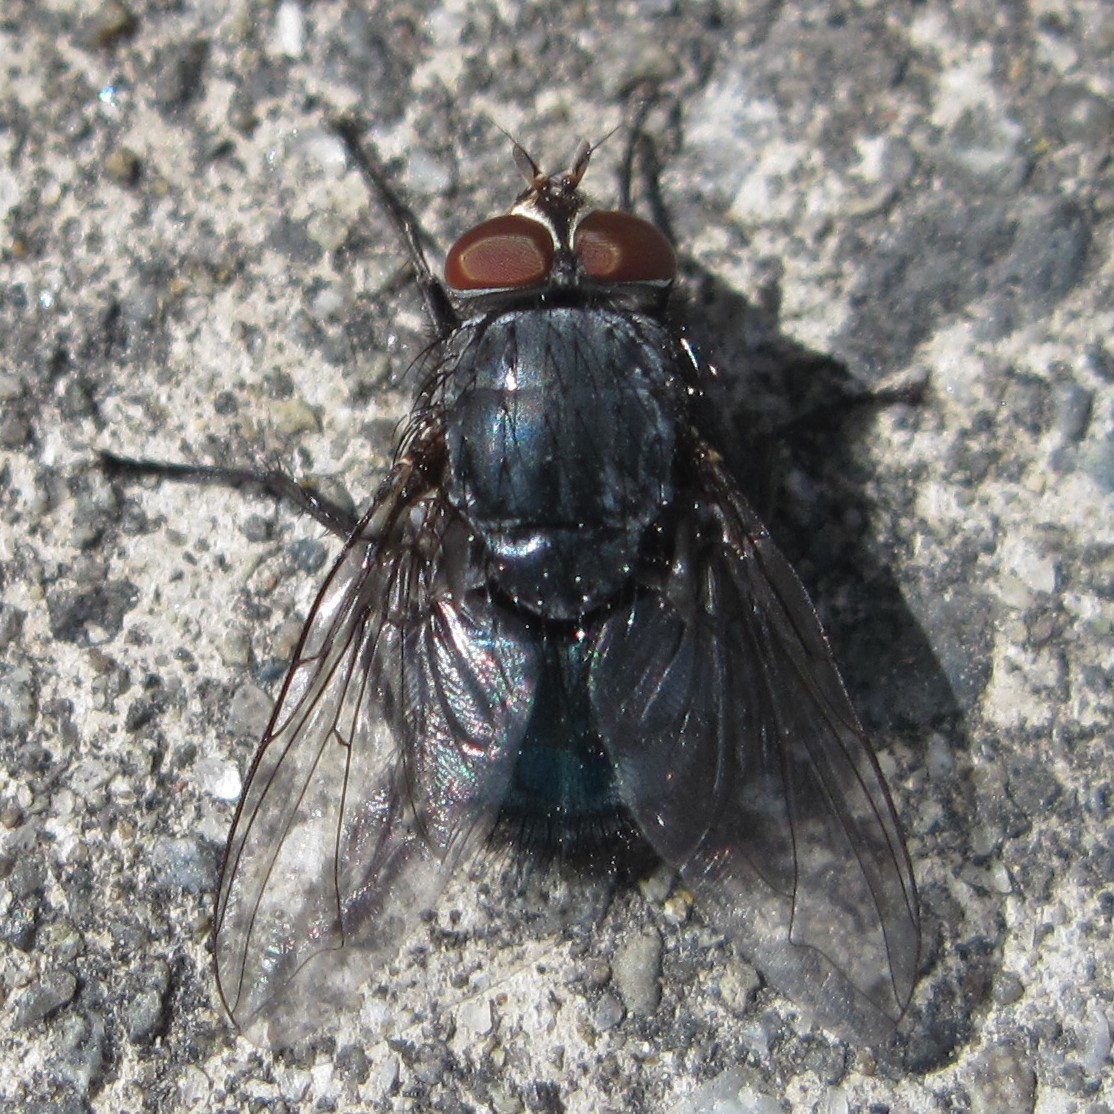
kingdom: Animalia
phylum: Arthropoda
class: Insecta
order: Diptera
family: Calliphoridae
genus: Calliphora
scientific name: Calliphora vicina
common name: Common blow flie
